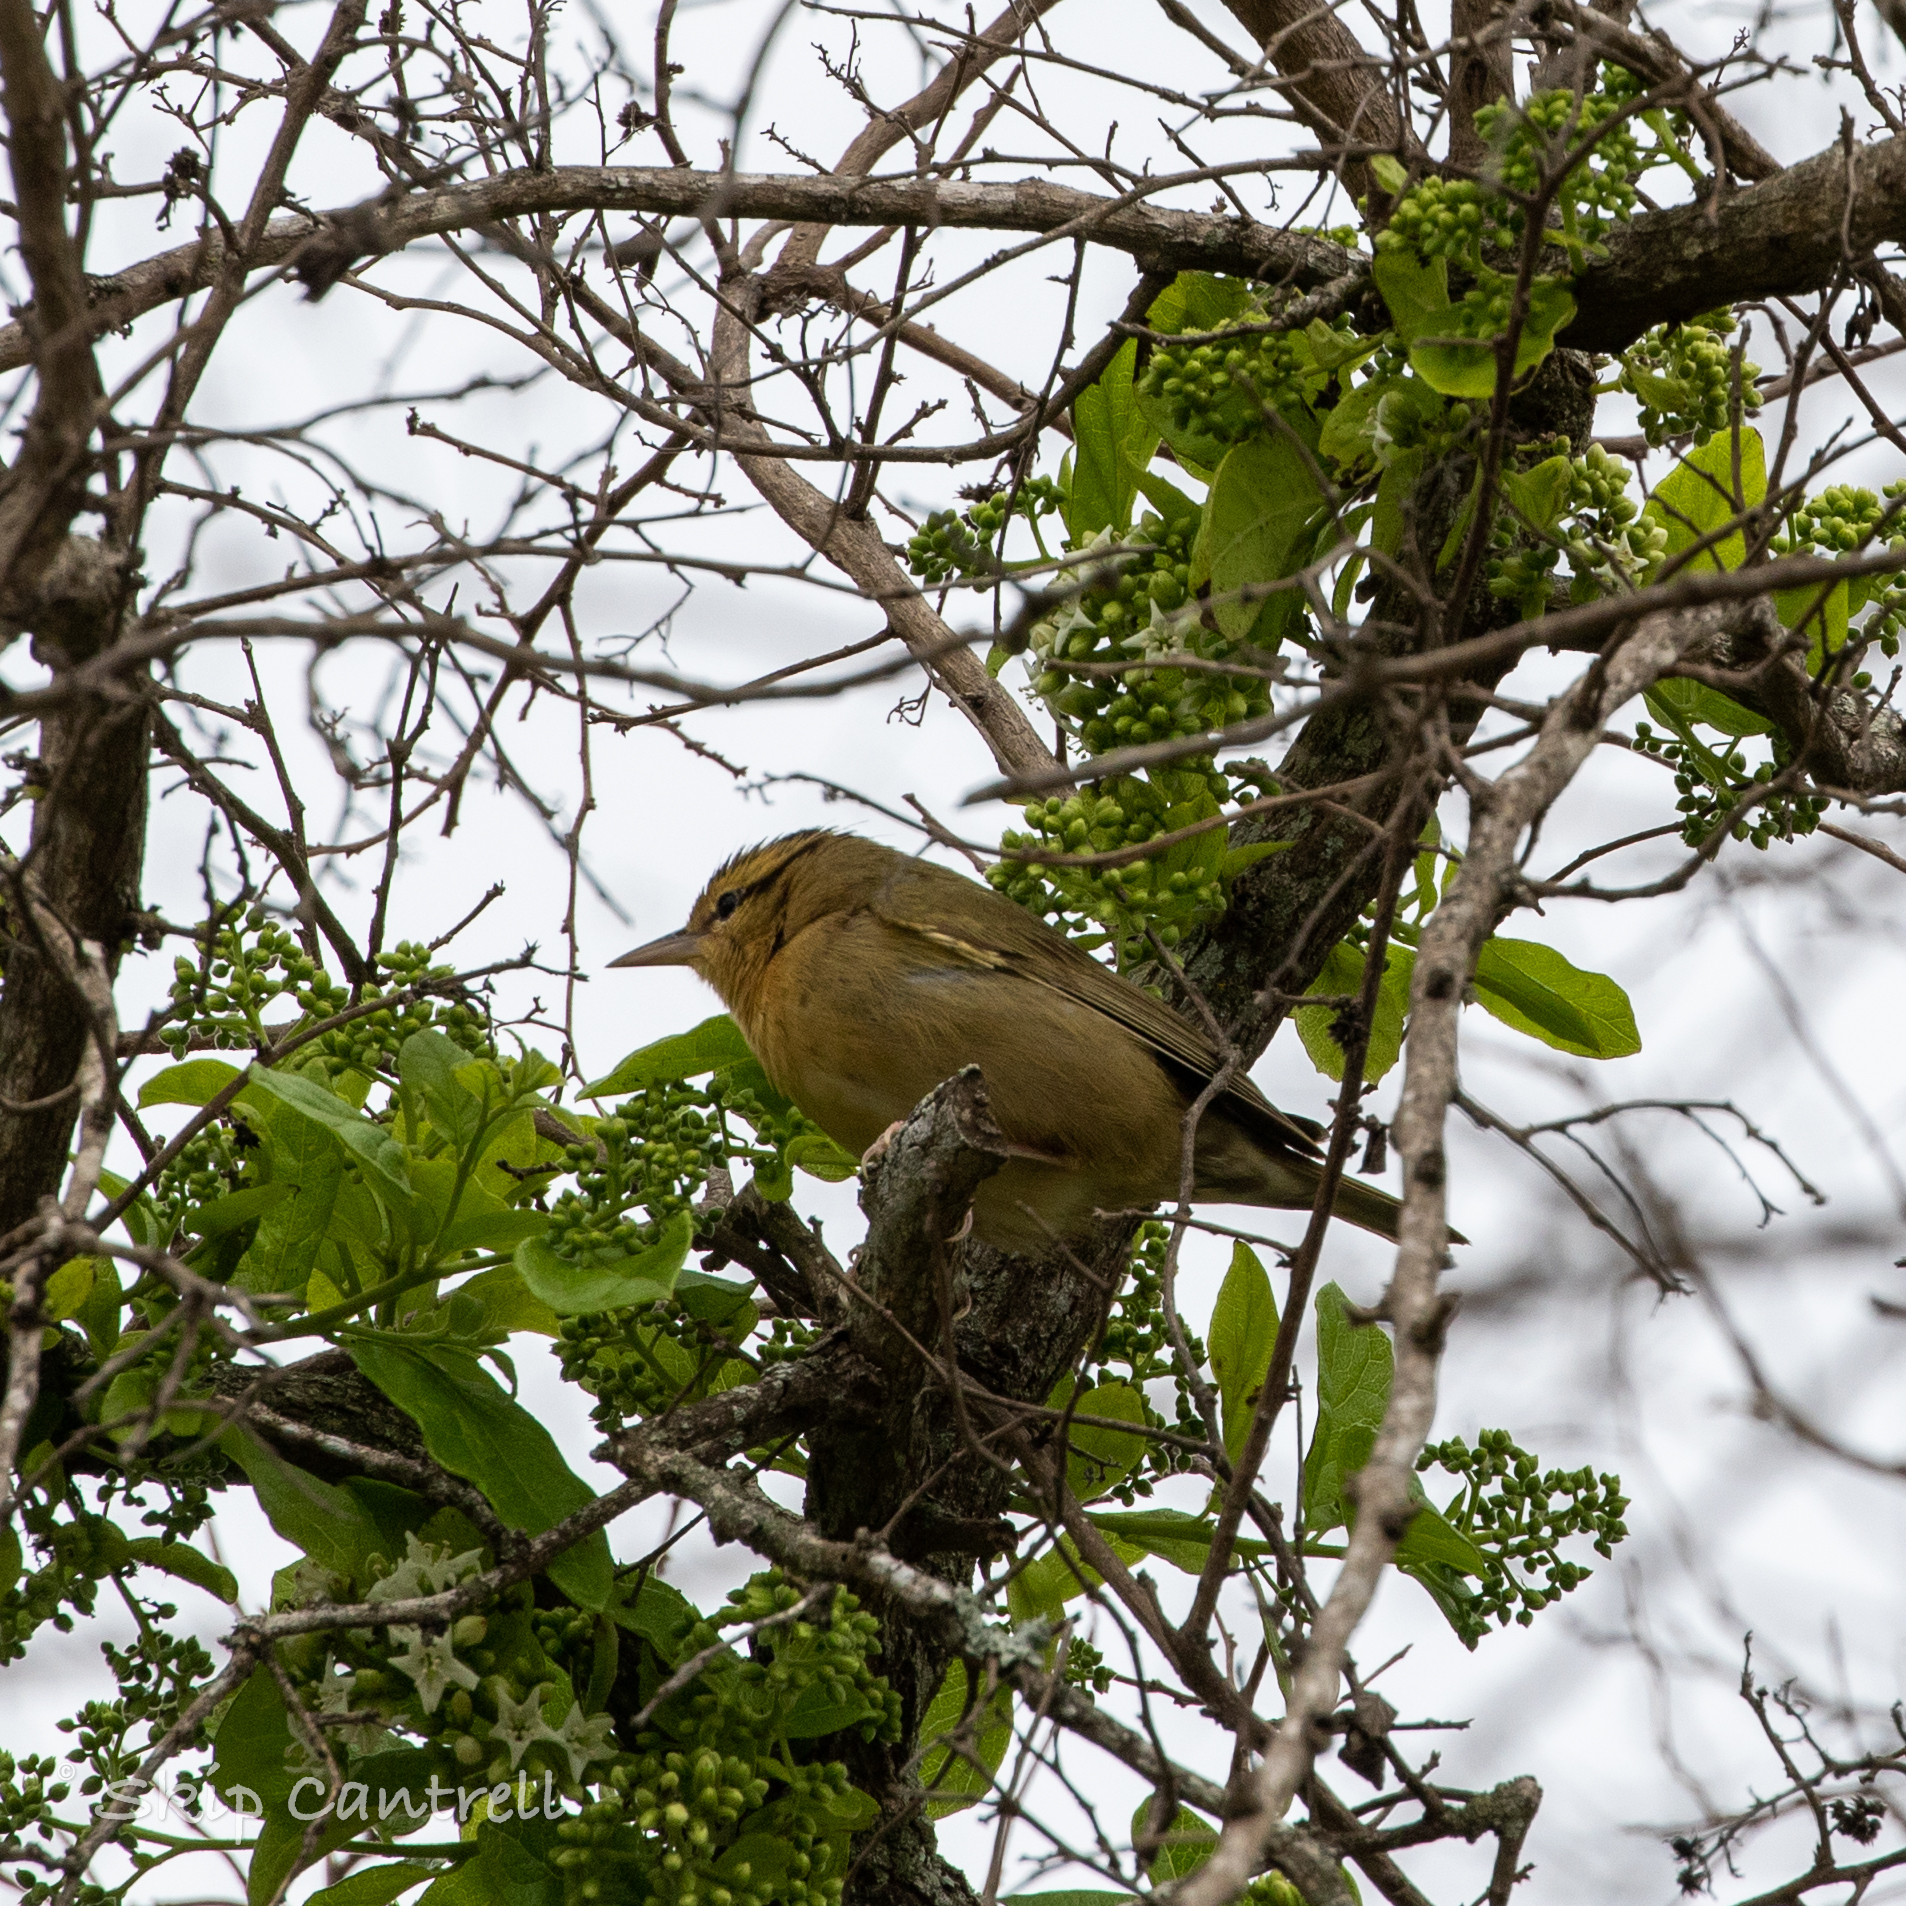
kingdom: Animalia
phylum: Chordata
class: Aves
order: Passeriformes
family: Parulidae
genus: Helmitheros
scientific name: Helmitheros vermivorum
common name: Worm-eating warbler
